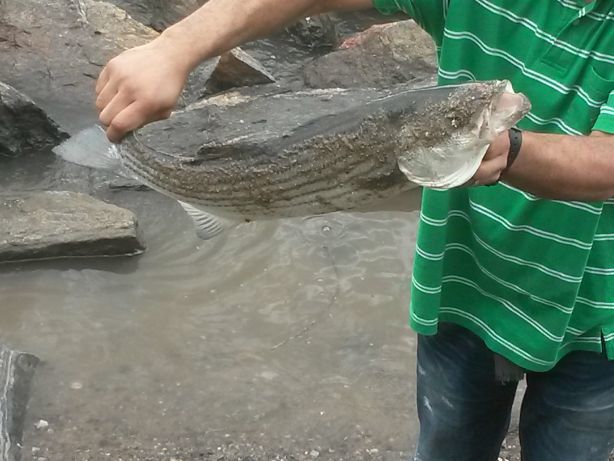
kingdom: Animalia
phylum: Chordata
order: Perciformes
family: Moronidae
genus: Morone
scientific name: Morone saxatilis
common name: Striped bass
